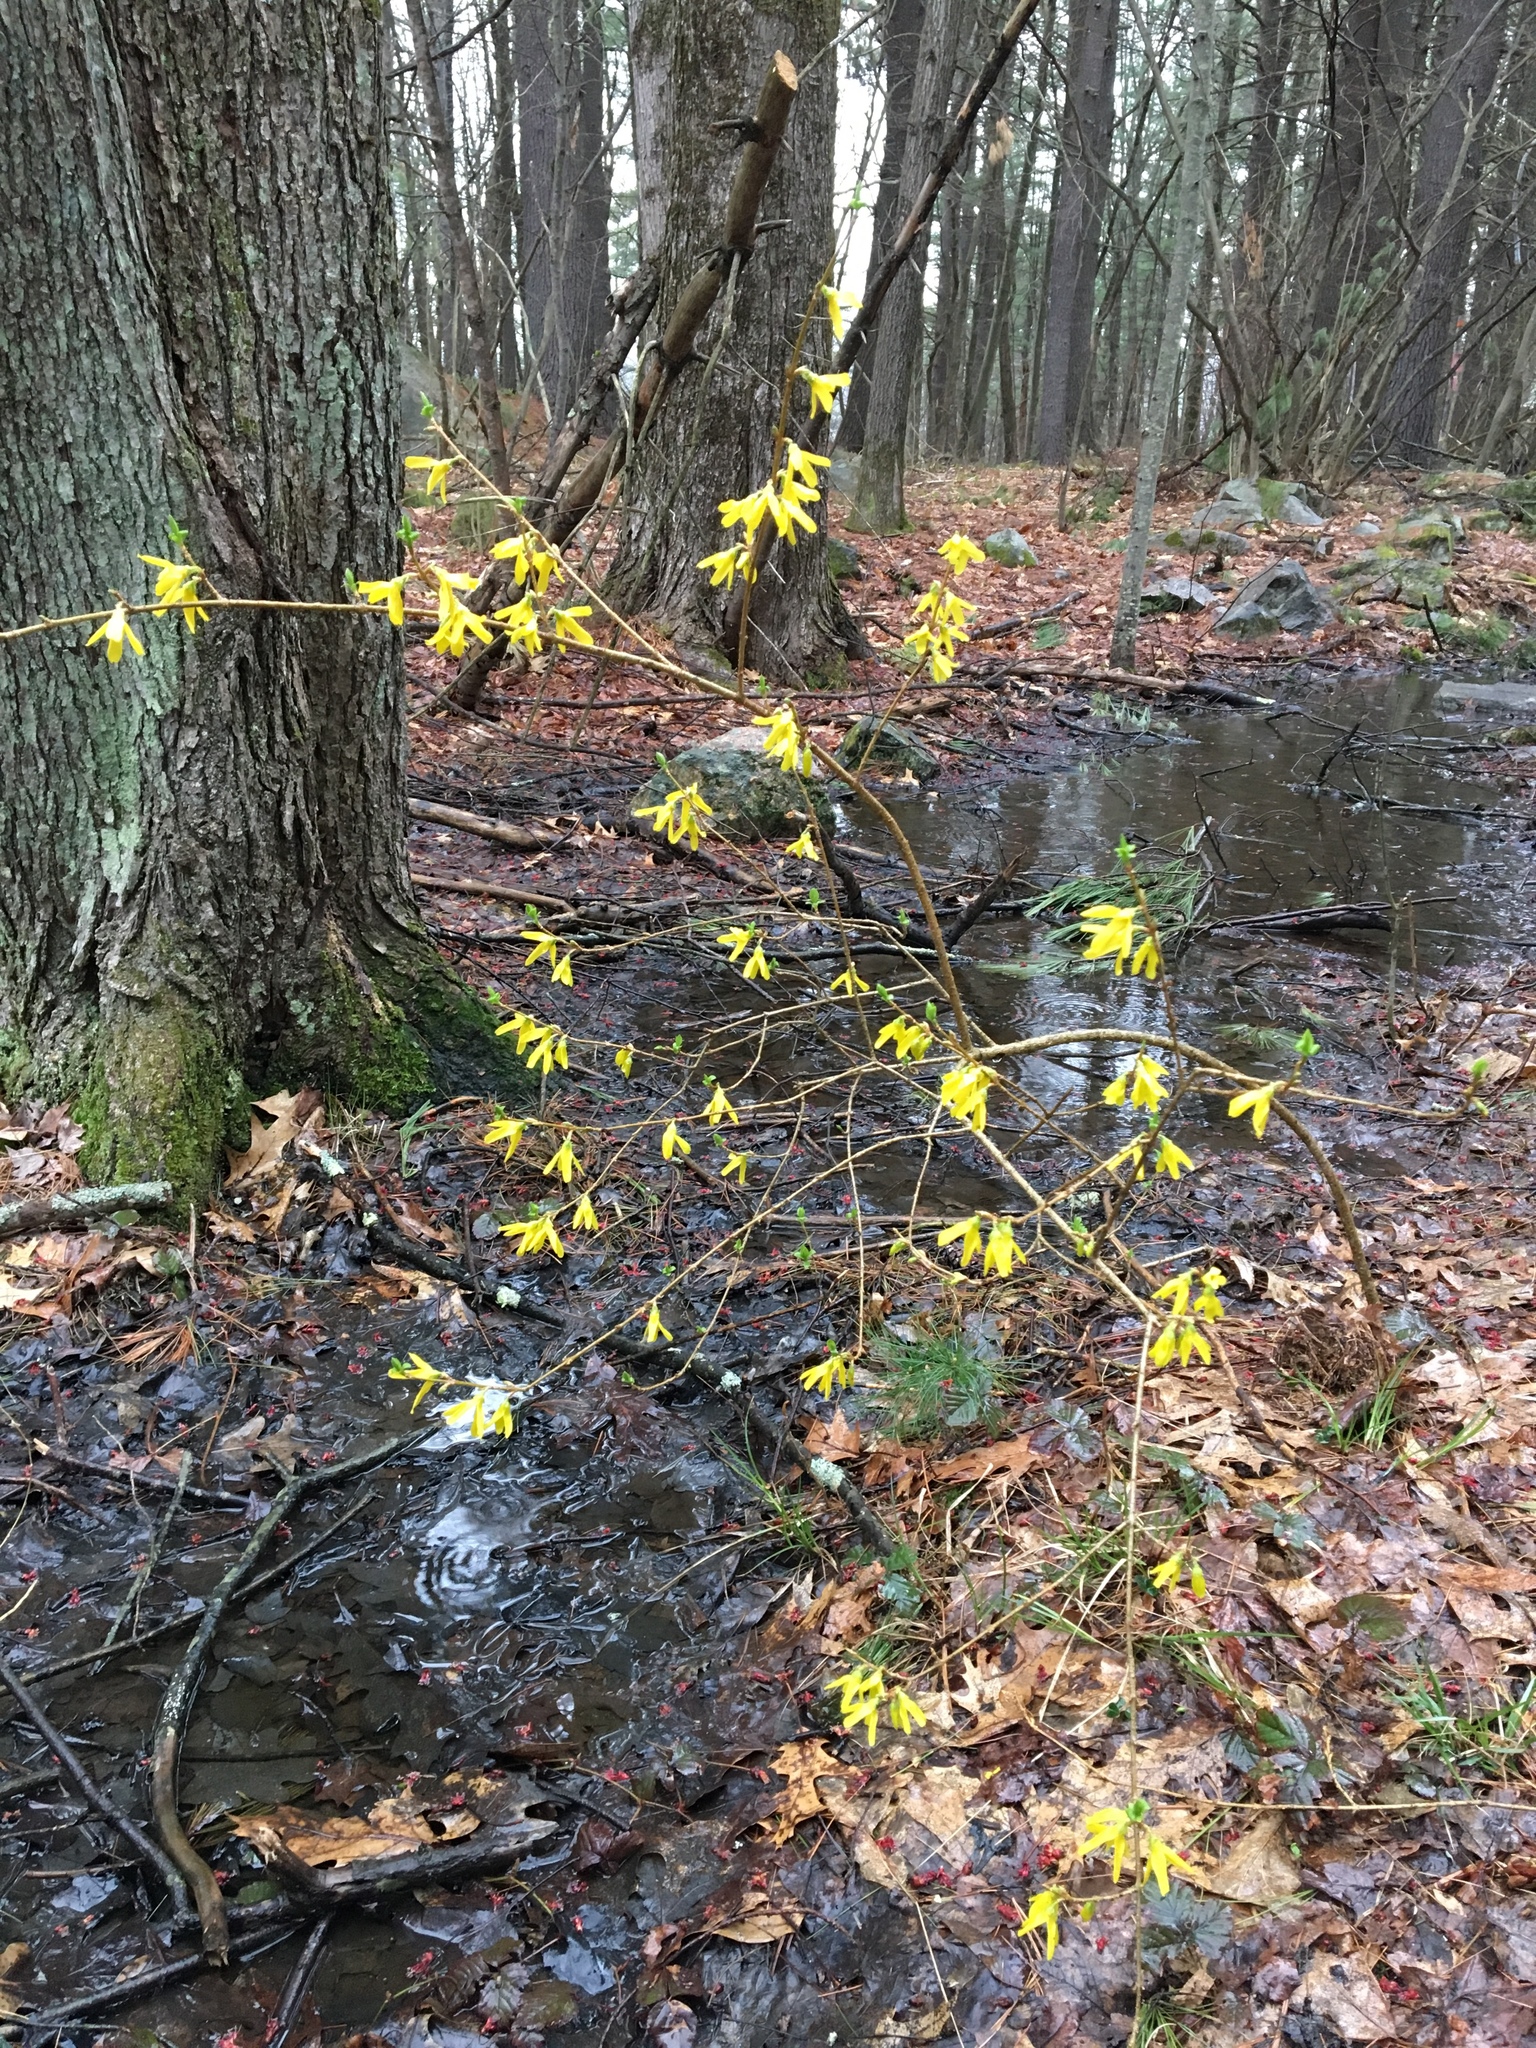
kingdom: Plantae
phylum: Tracheophyta
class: Magnoliopsida
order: Lamiales
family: Oleaceae
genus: Forsythia
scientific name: Forsythia
